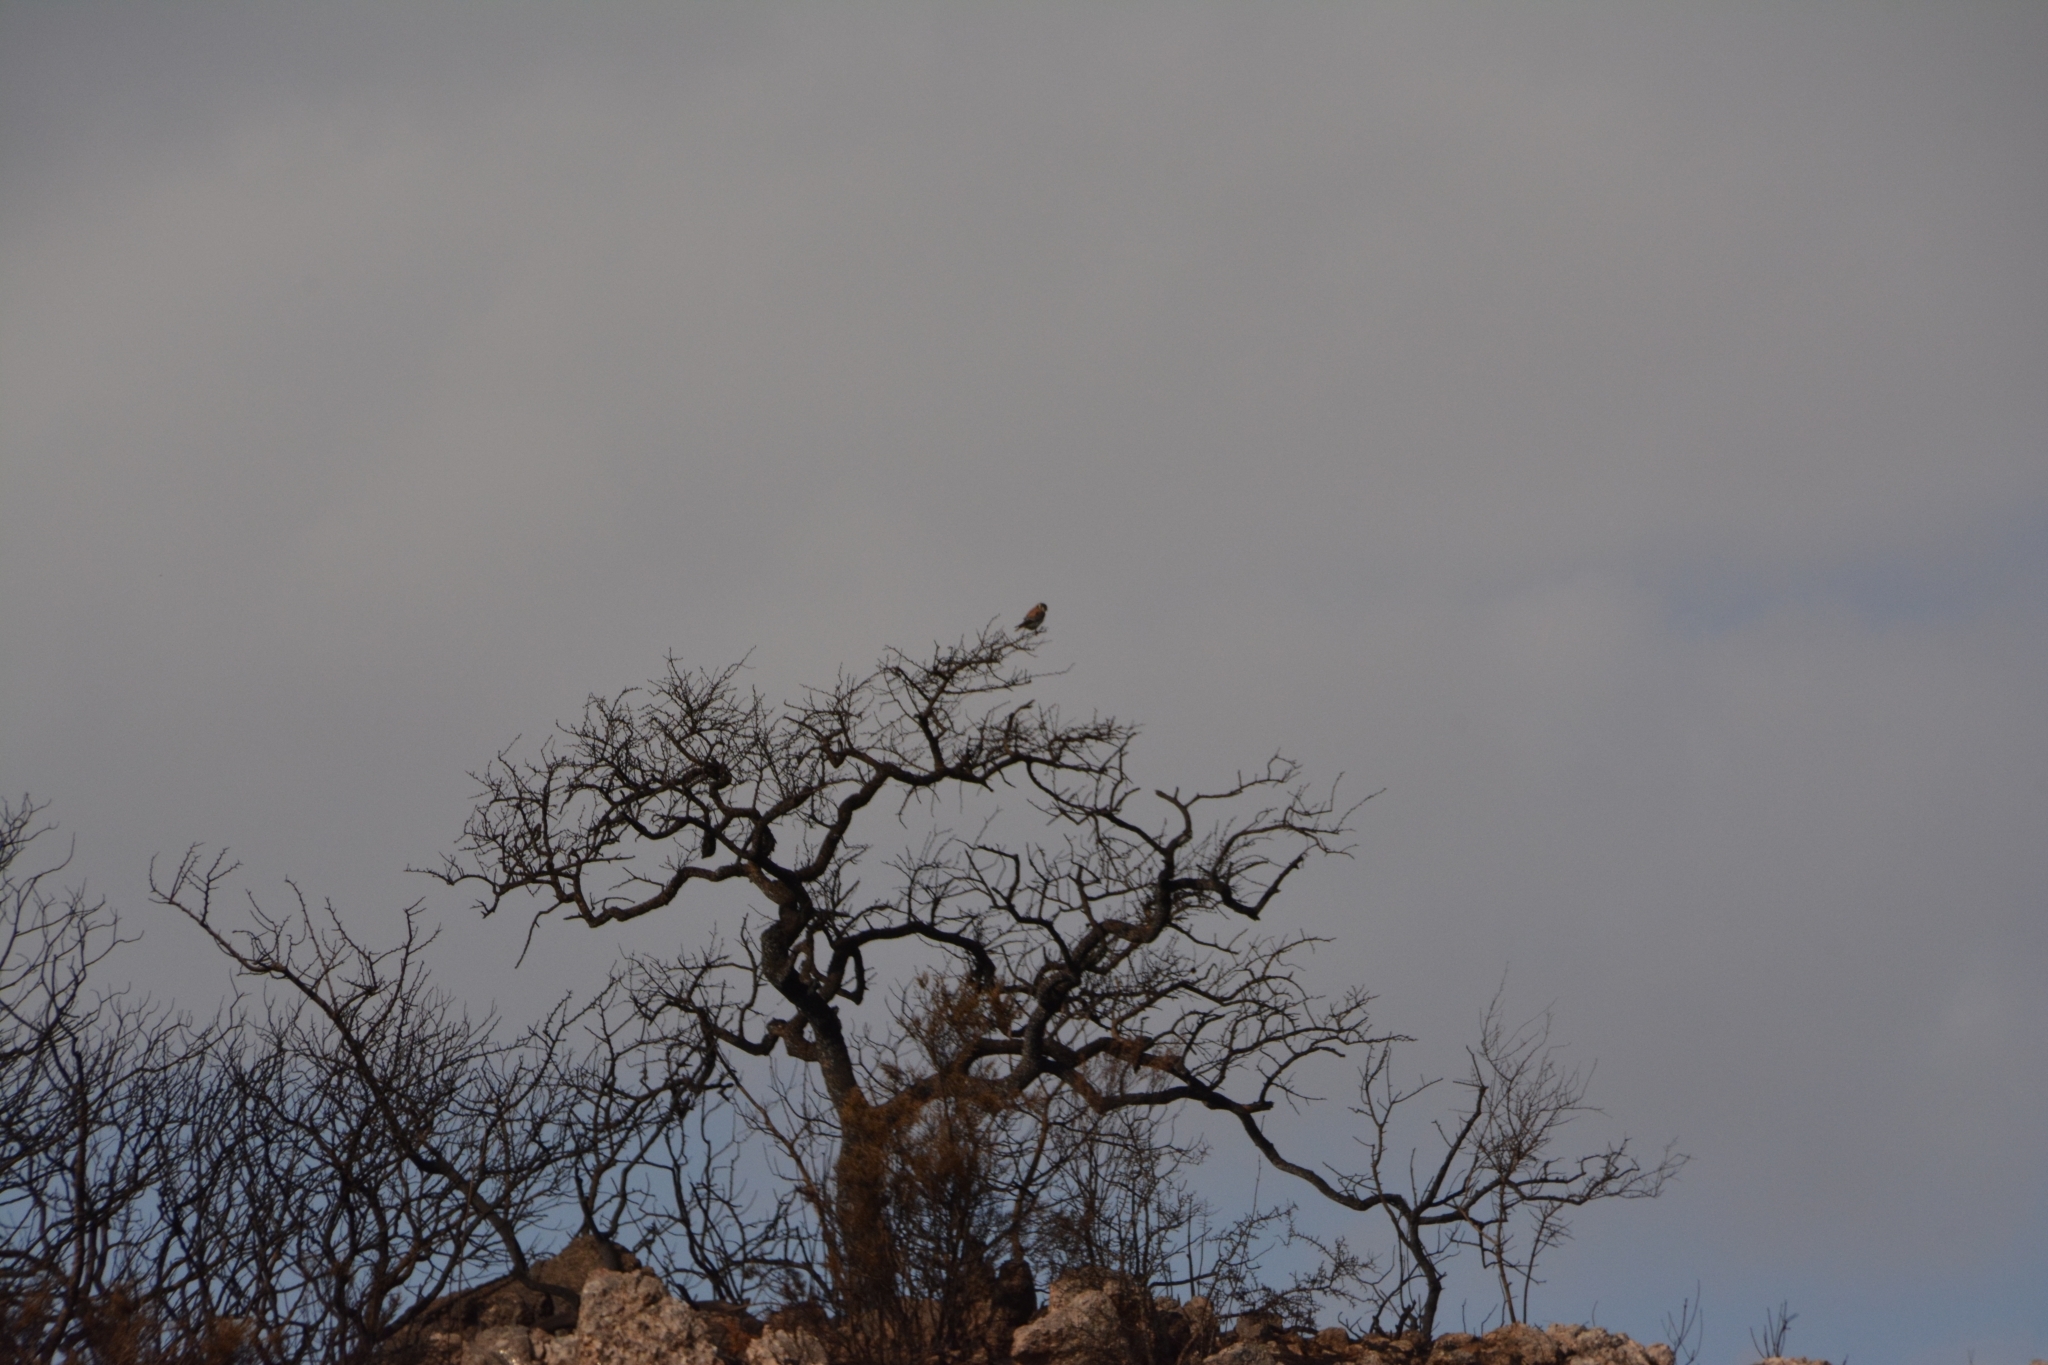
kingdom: Animalia
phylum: Chordata
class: Aves
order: Falconiformes
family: Falconidae
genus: Falco
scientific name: Falco sparverius
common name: American kestrel
